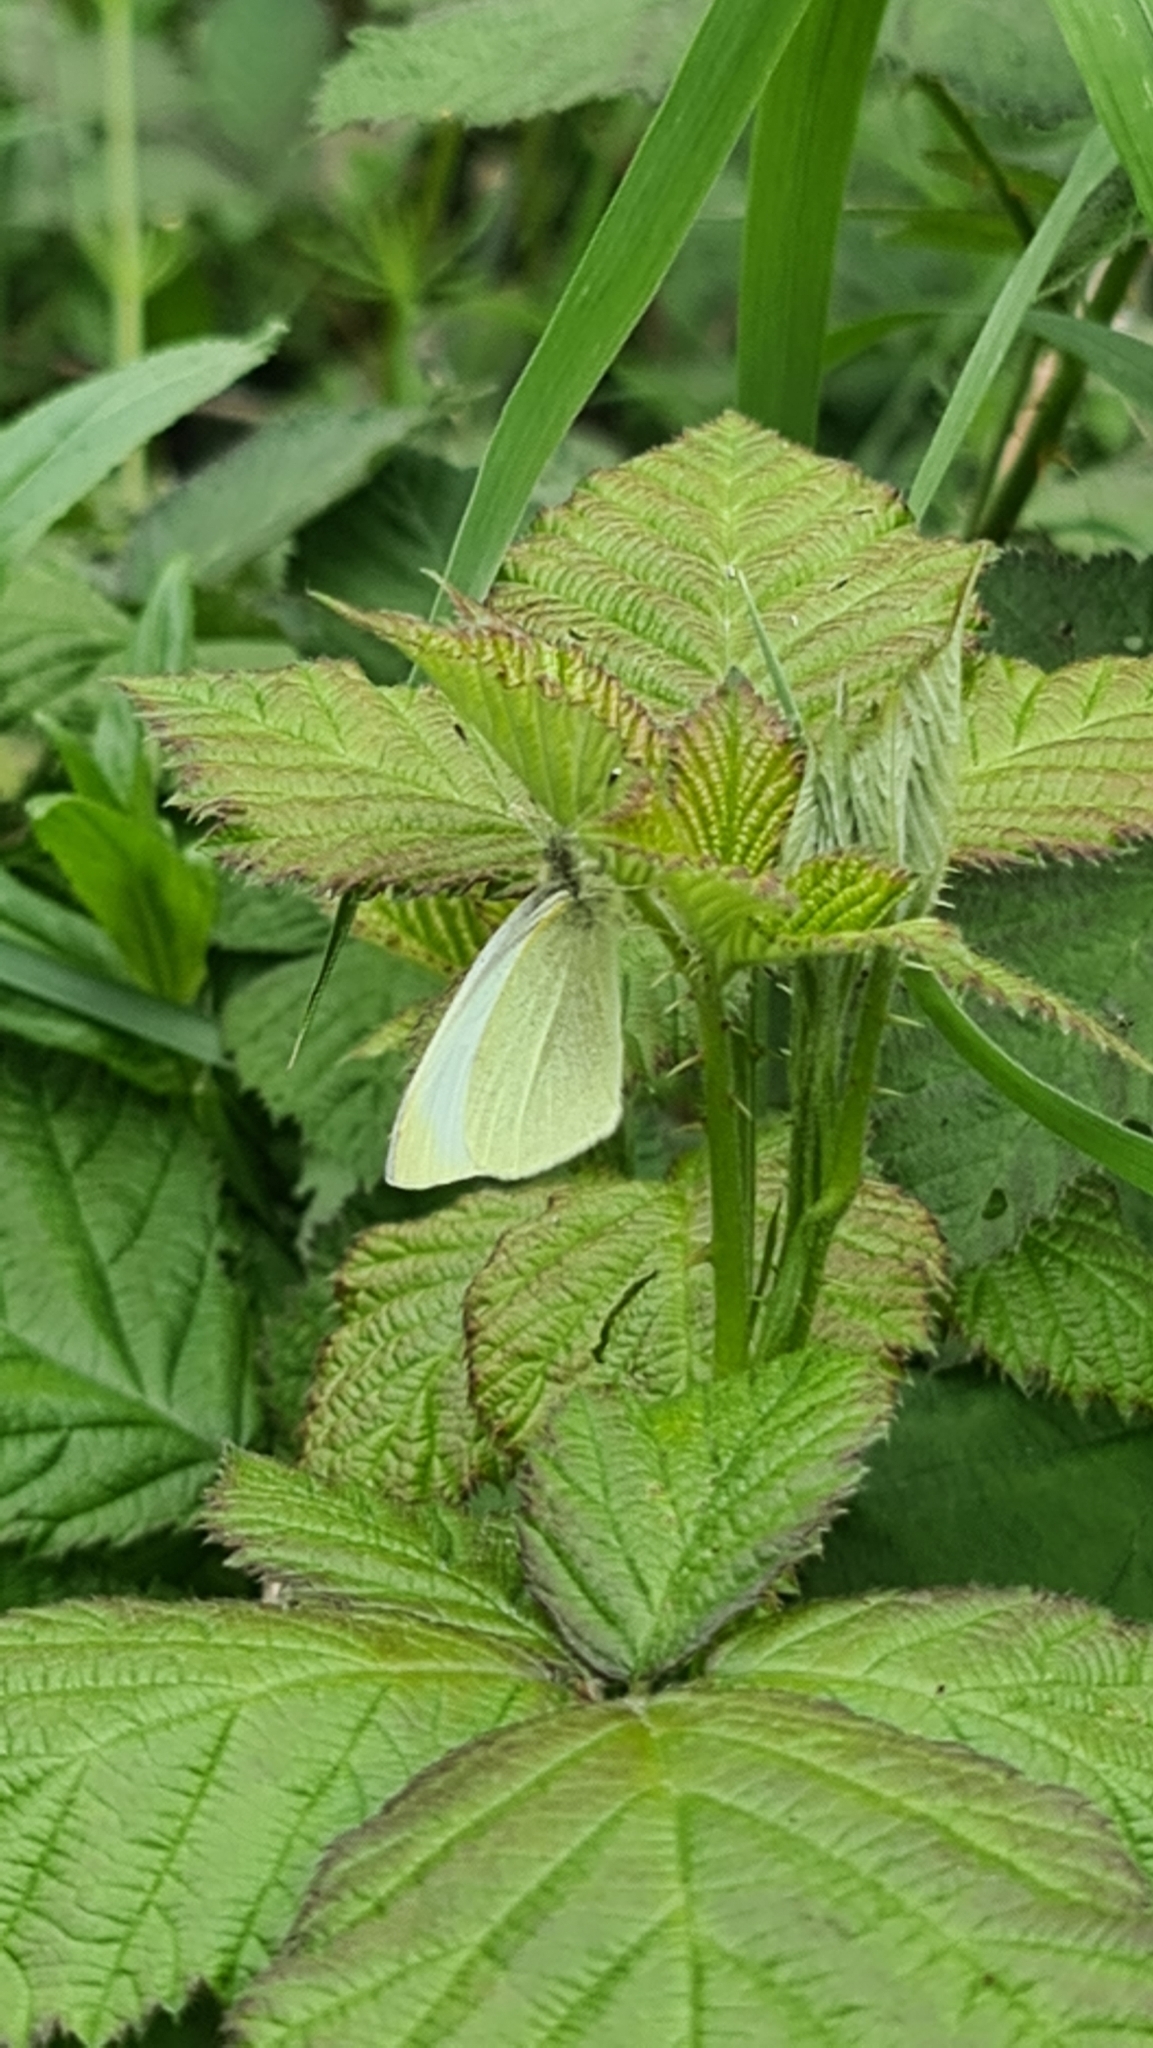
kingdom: Animalia
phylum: Arthropoda
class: Insecta
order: Lepidoptera
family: Pieridae
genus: Pieris
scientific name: Pieris rapae
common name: Small white
